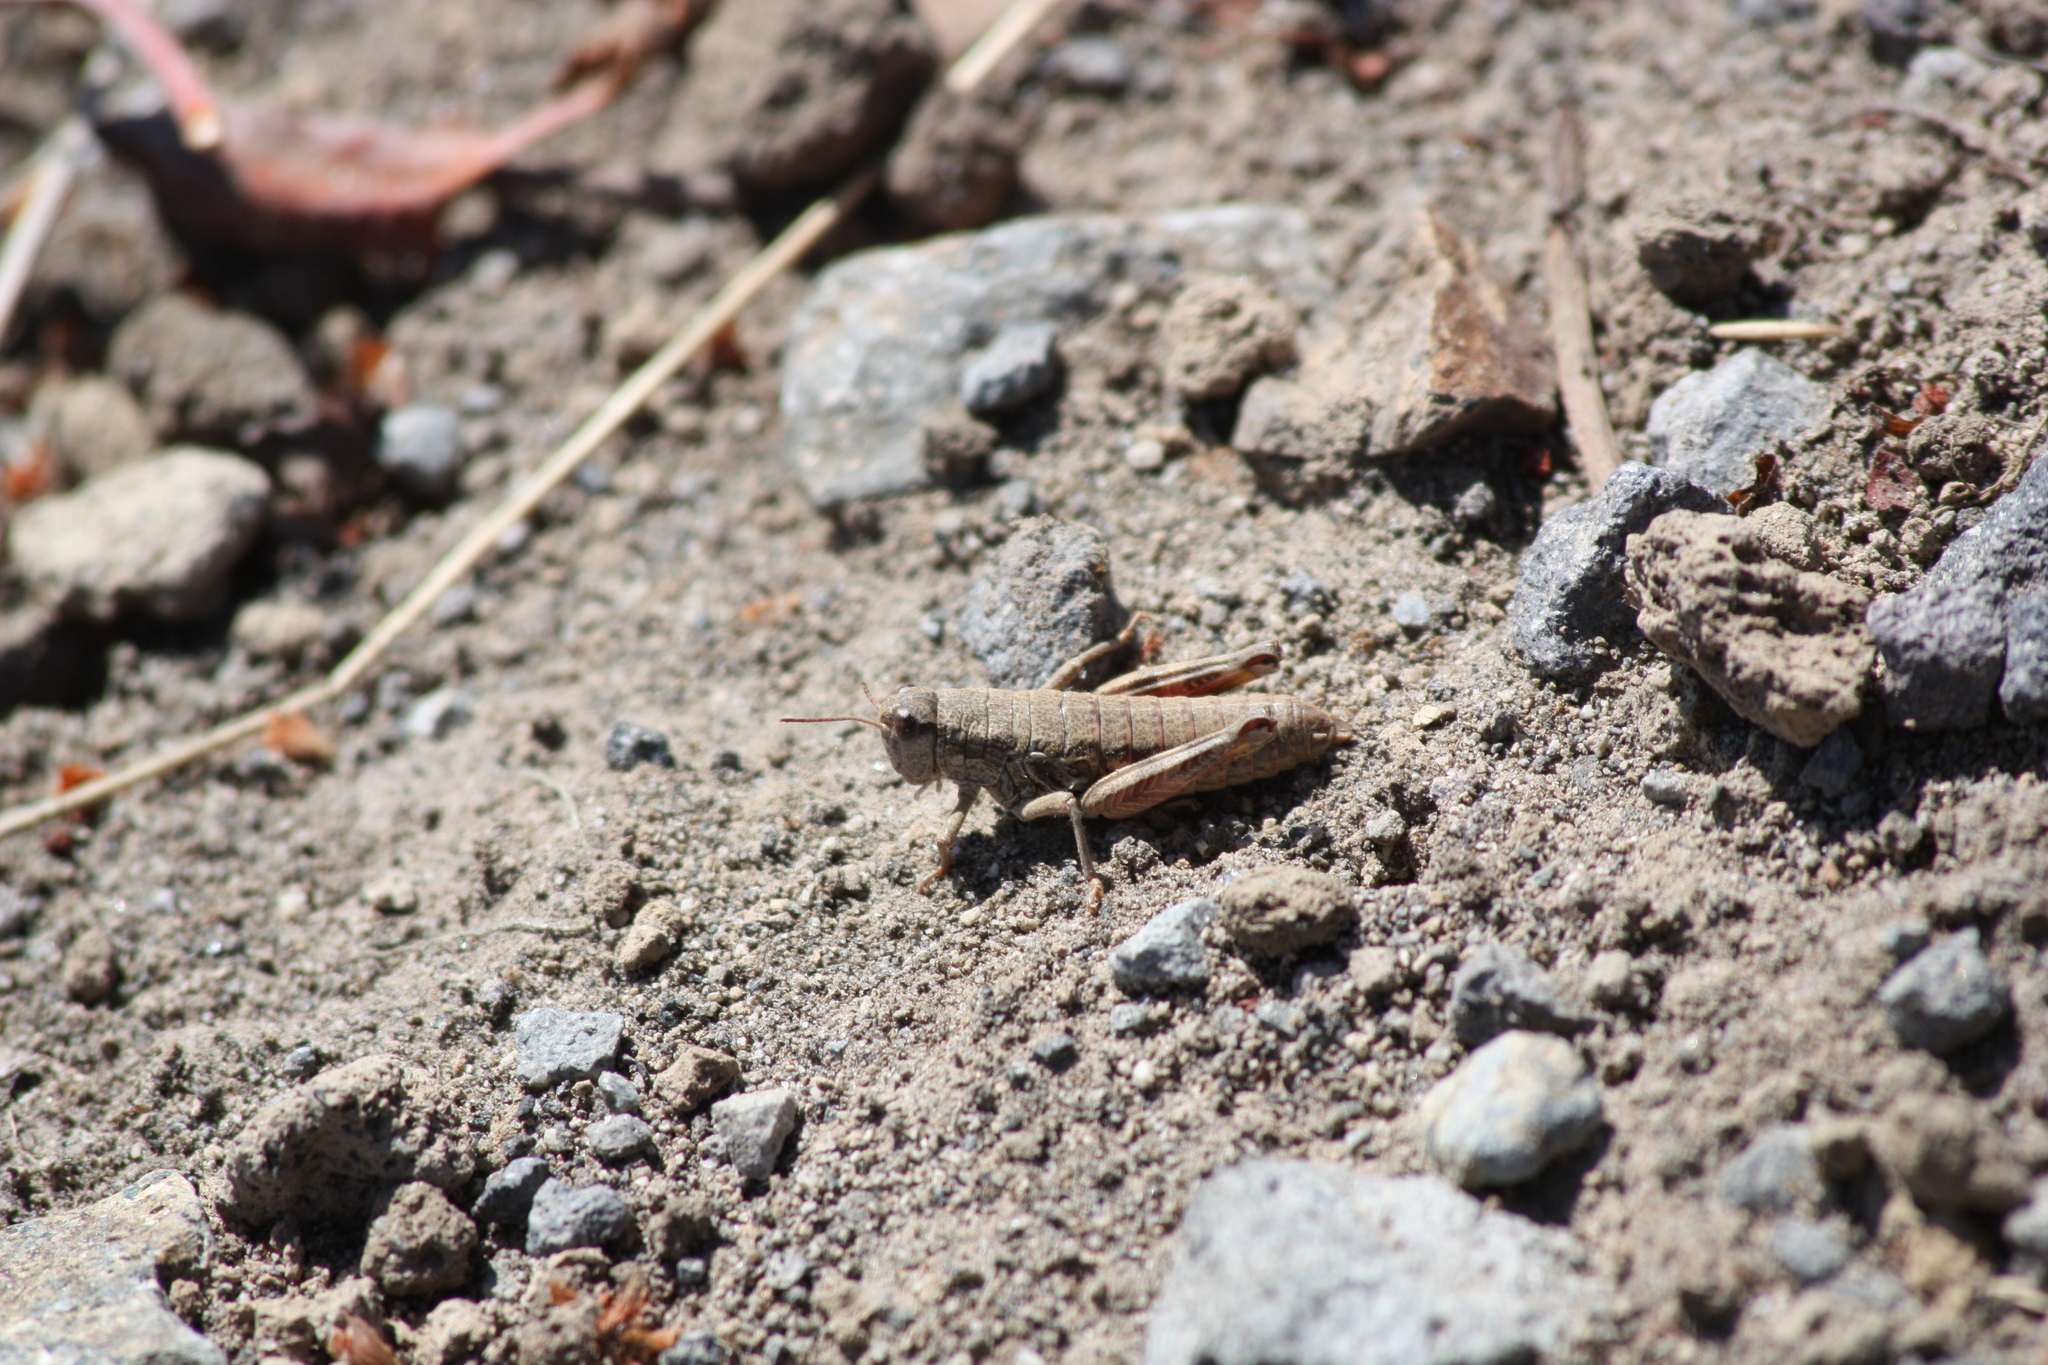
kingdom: Animalia
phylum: Arthropoda
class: Insecta
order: Orthoptera
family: Acrididae
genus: Buckellacris
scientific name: Buckellacris chilcotinae
